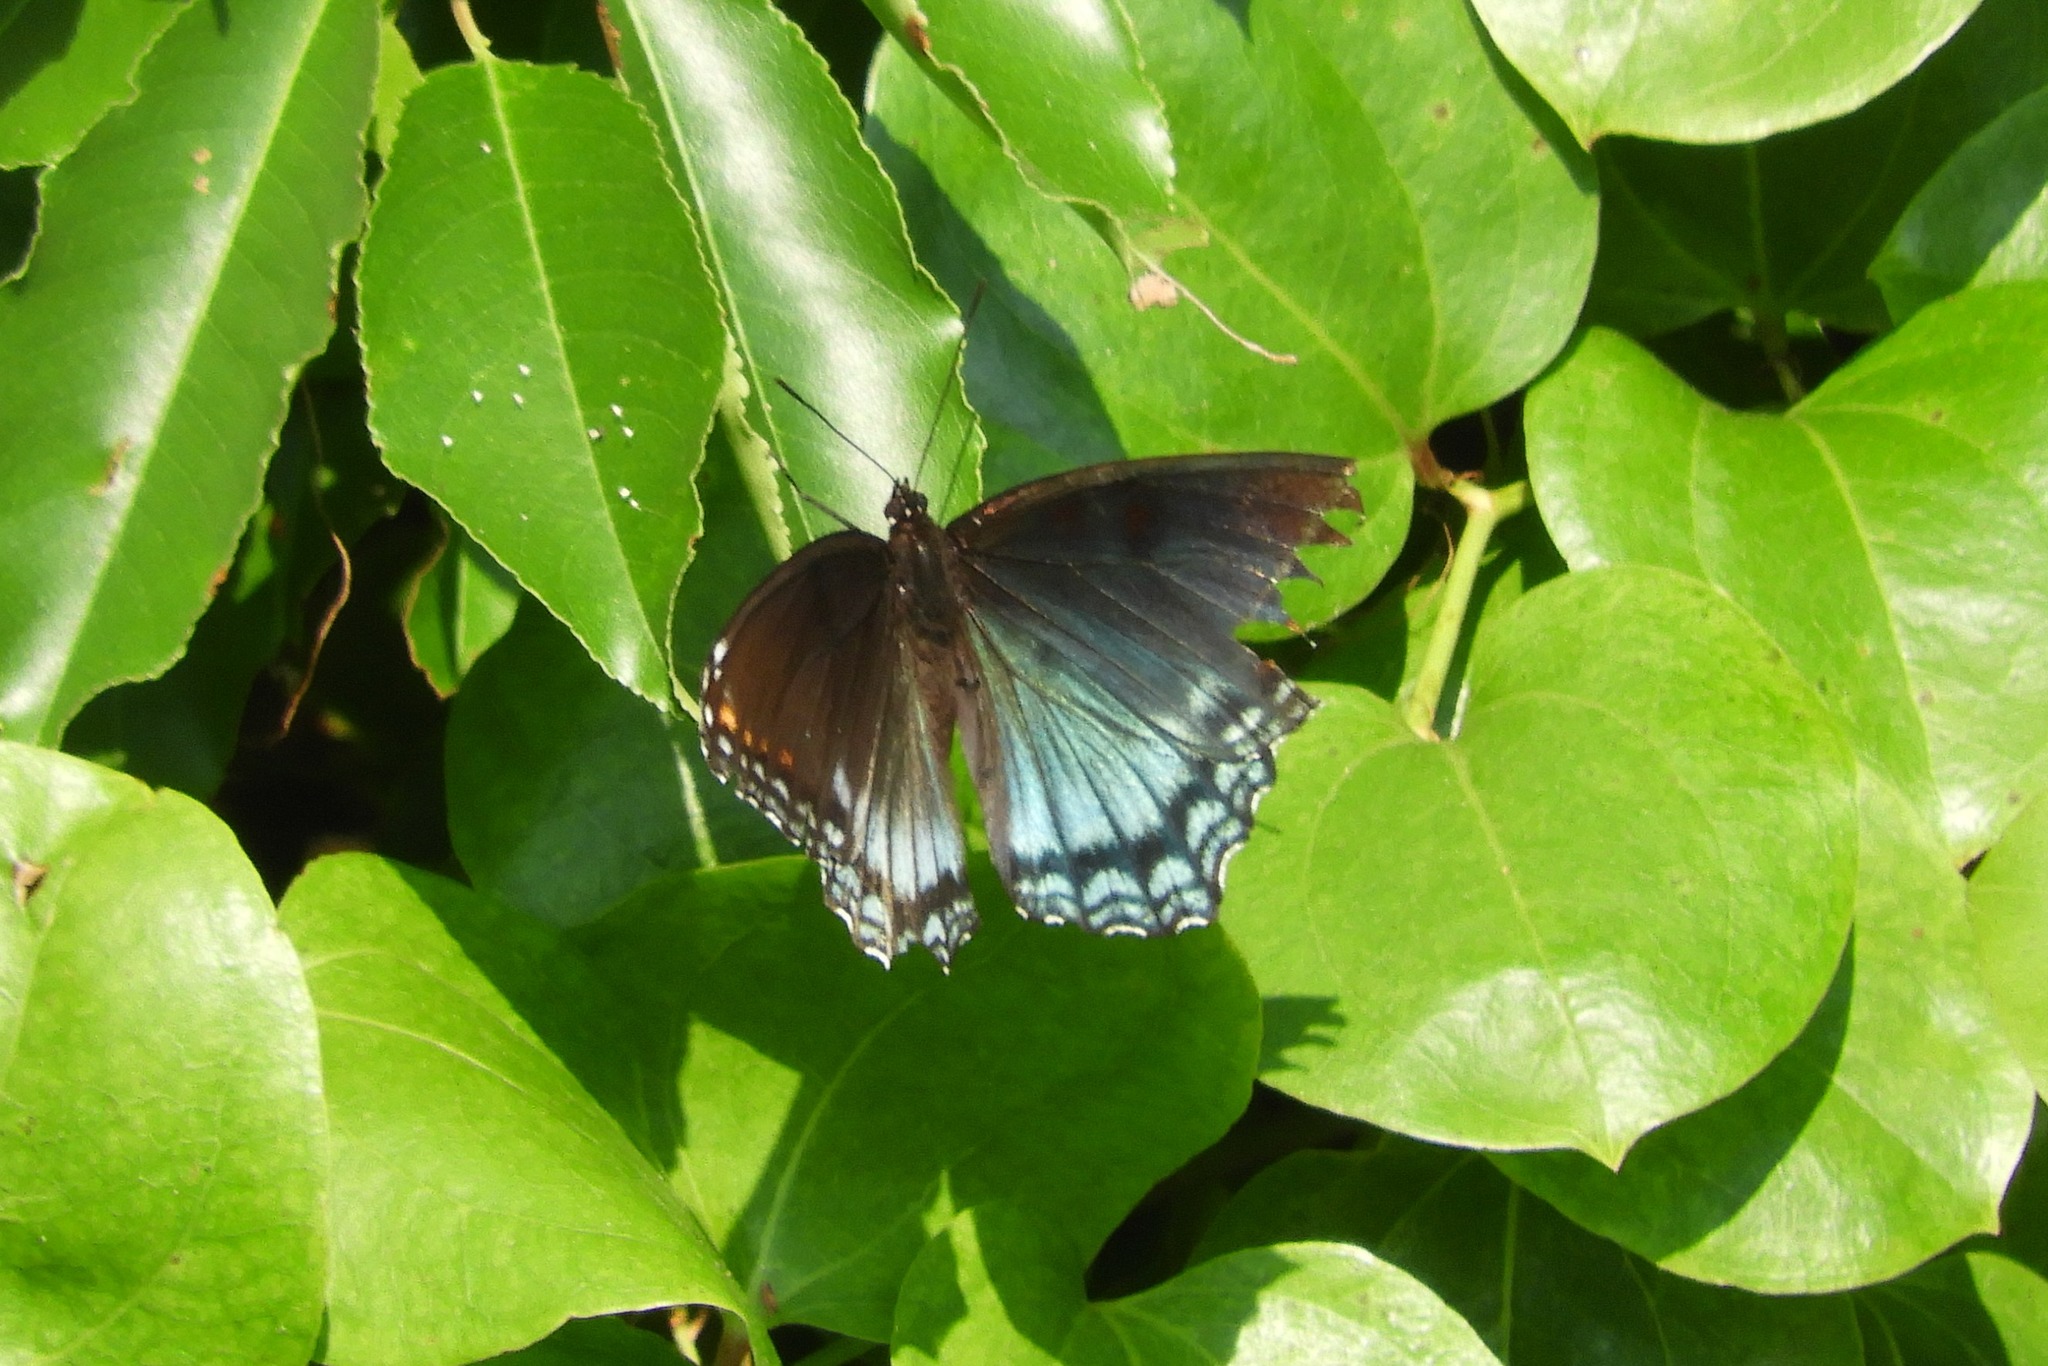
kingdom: Animalia
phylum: Arthropoda
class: Insecta
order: Lepidoptera
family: Nymphalidae
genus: Limenitis
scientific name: Limenitis astyanax
